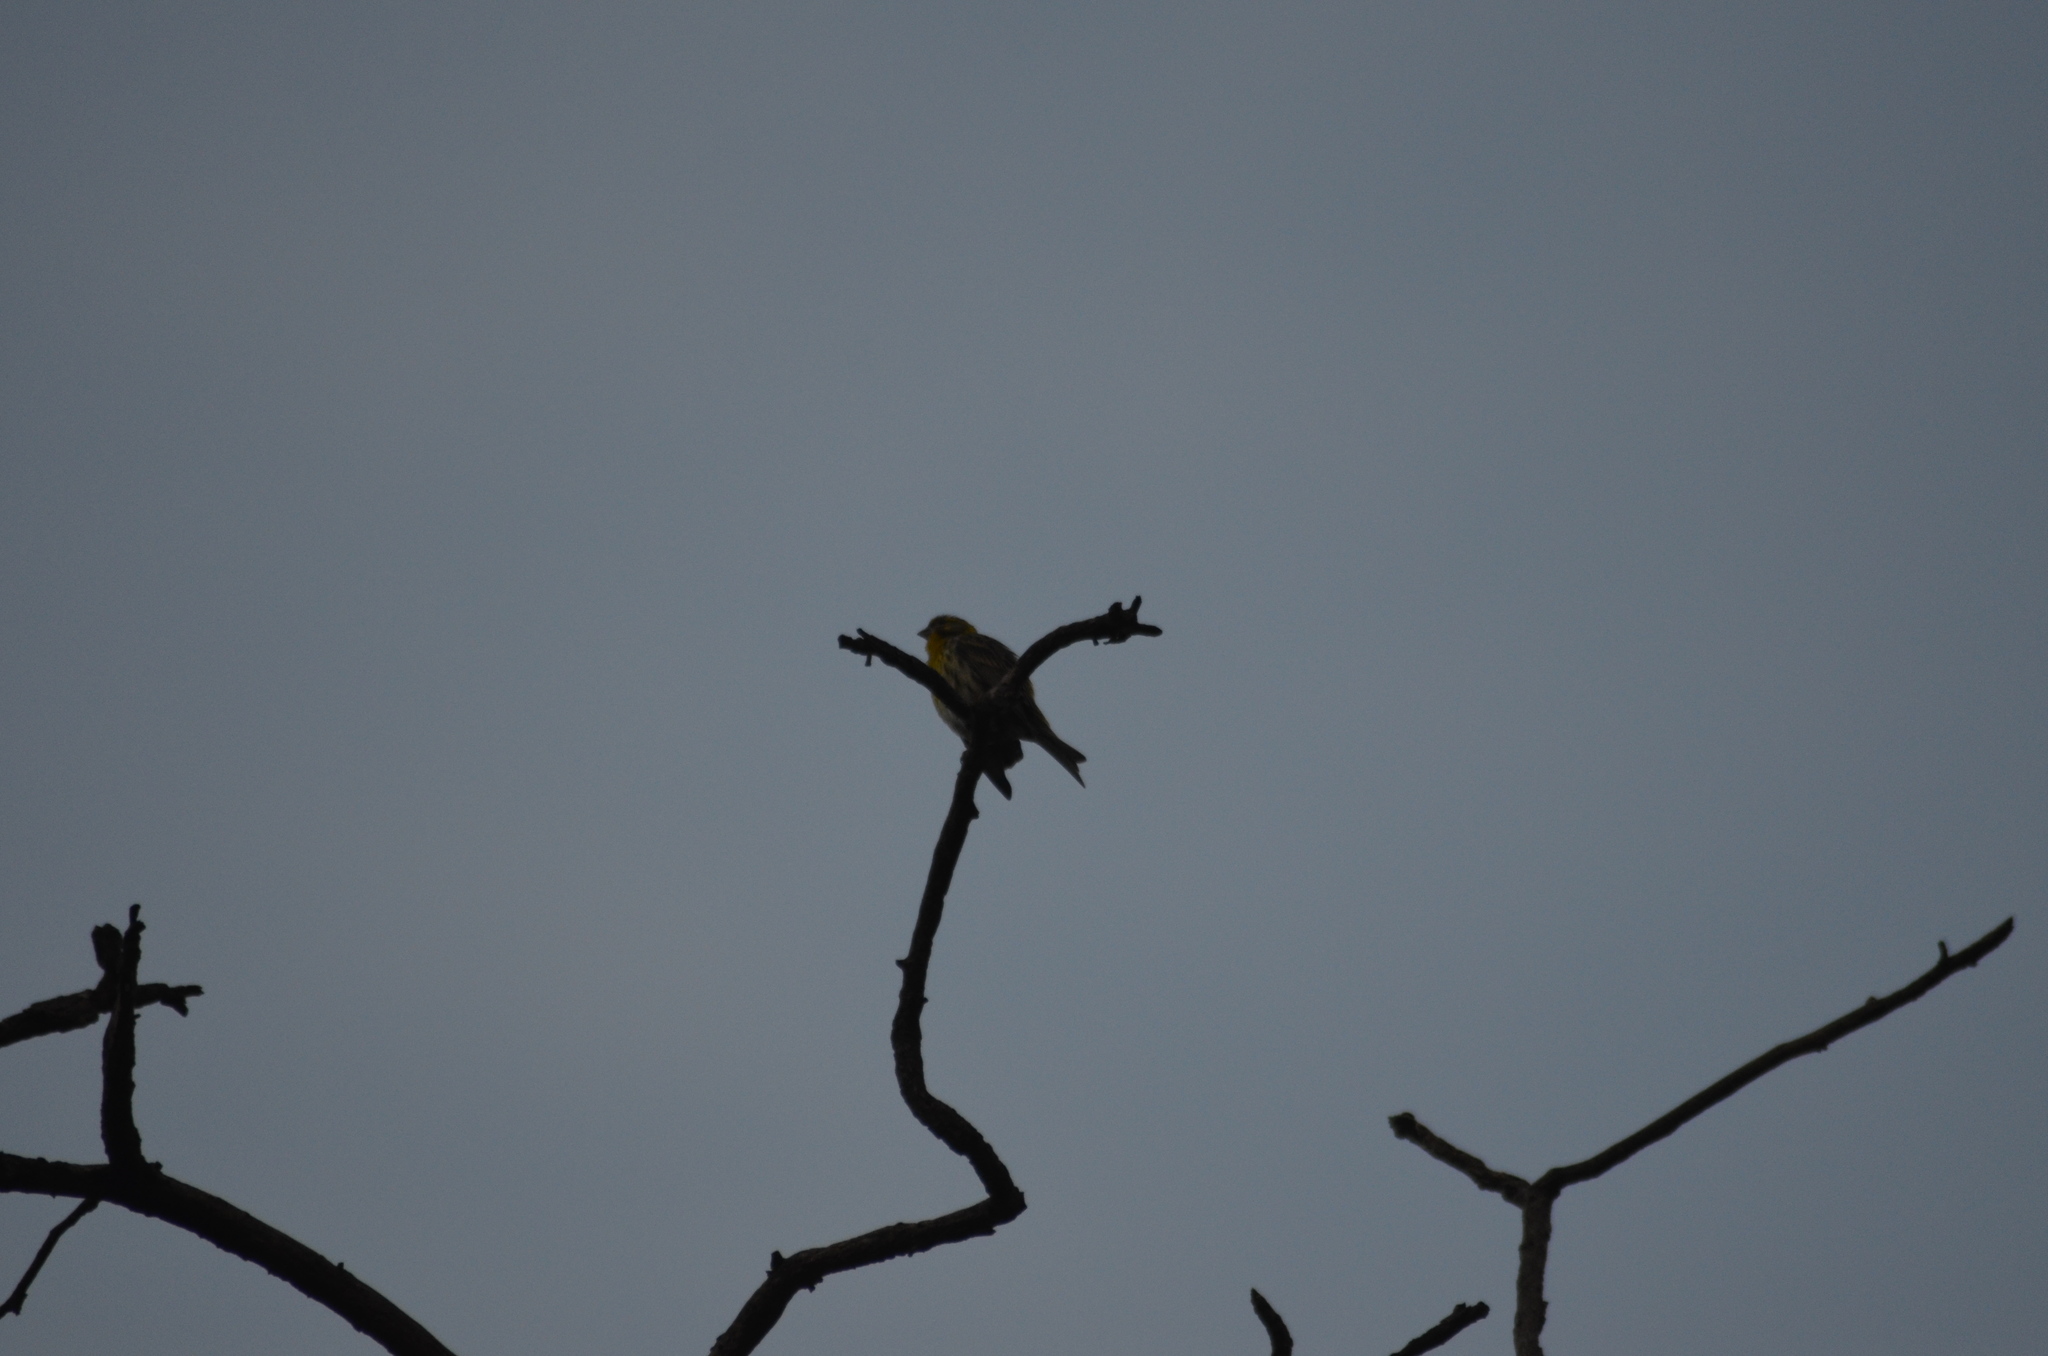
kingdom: Animalia
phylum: Chordata
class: Aves
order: Passeriformes
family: Fringillidae
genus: Serinus
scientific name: Serinus serinus
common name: European serin
